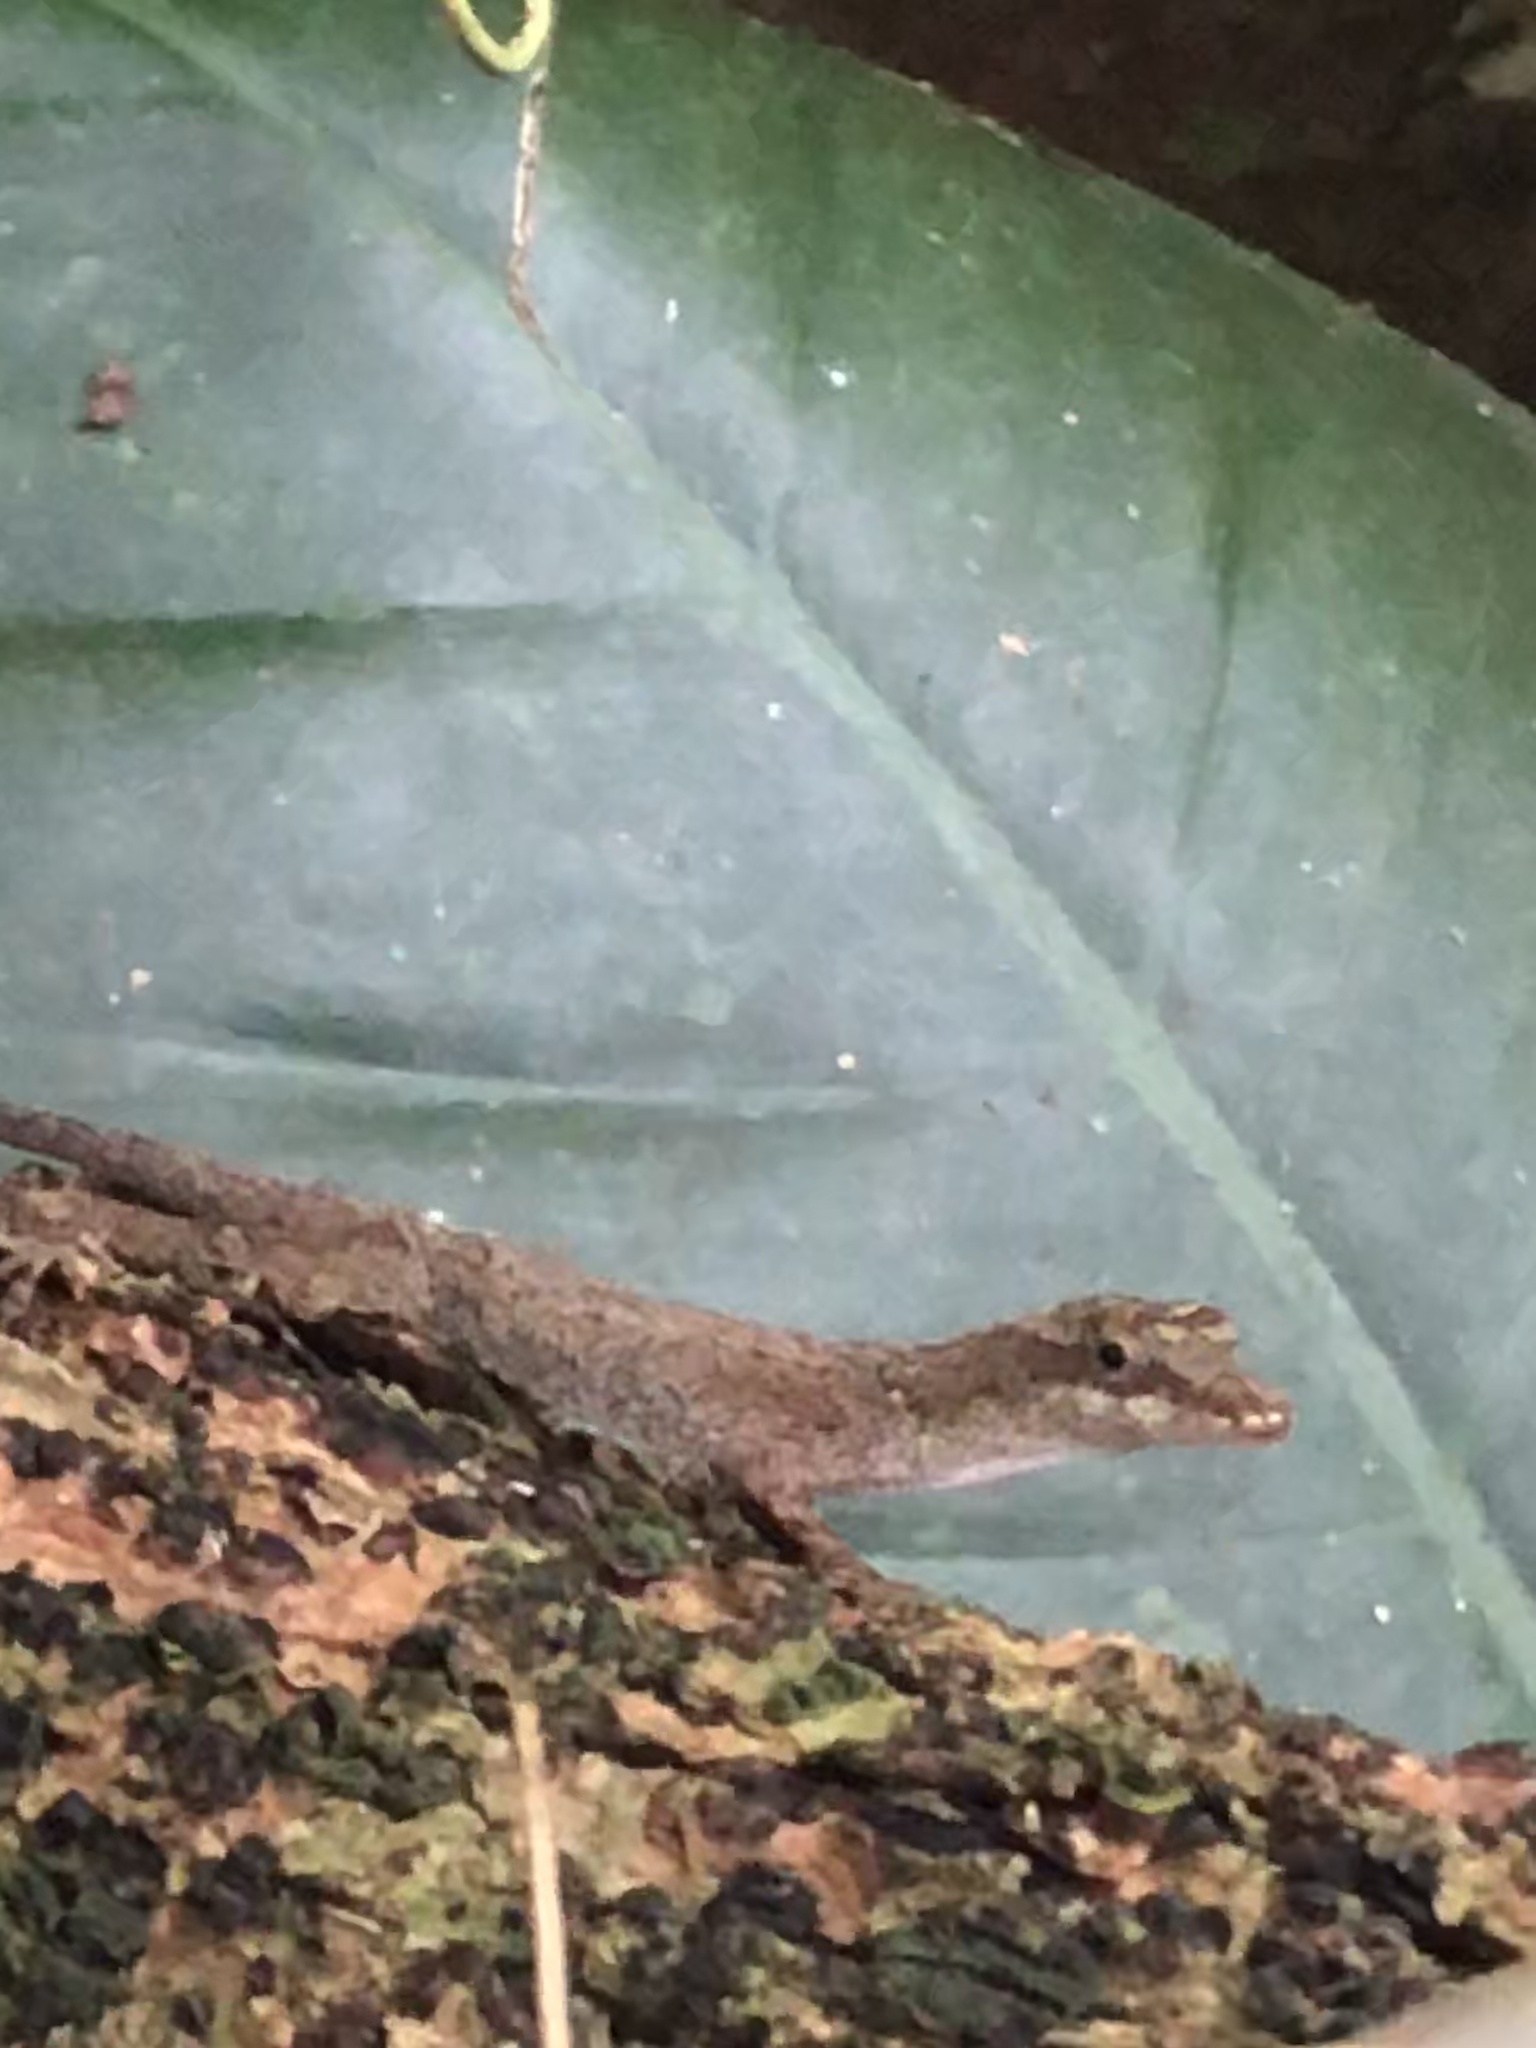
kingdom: Animalia
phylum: Chordata
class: Squamata
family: Dactyloidae
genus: Anolis
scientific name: Anolis fuscoauratus
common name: Brown-eared anole
